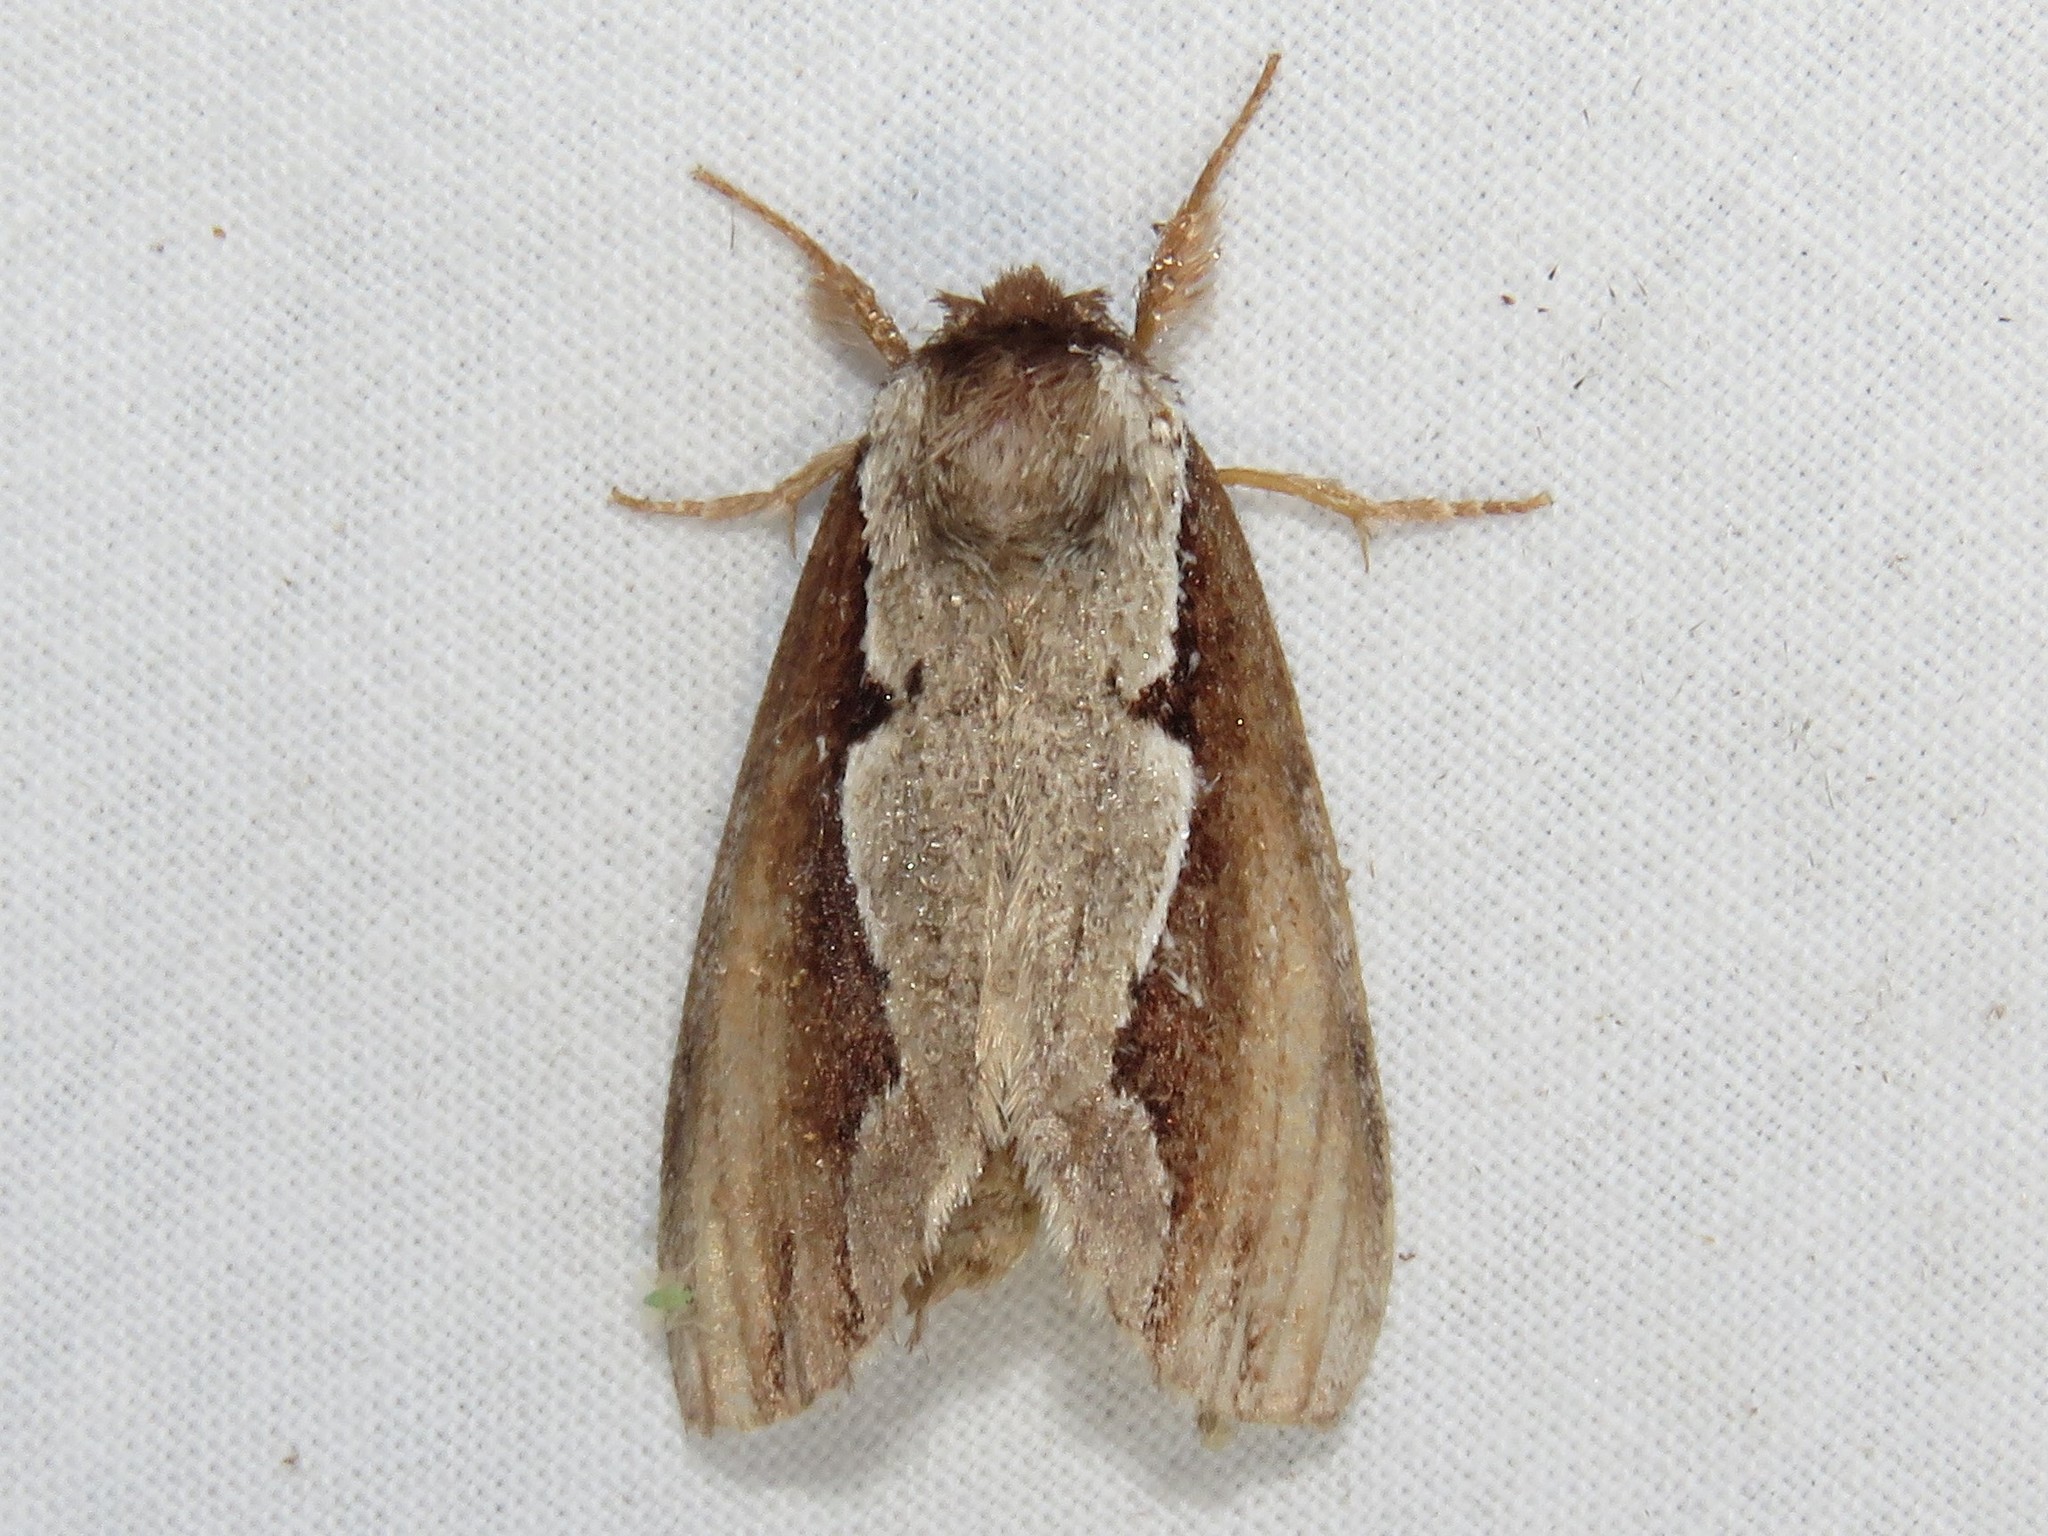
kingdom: Animalia
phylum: Arthropoda
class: Insecta
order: Lepidoptera
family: Notodontidae
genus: Nerice
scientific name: Nerice bidentata
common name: Double-toothed prominent
